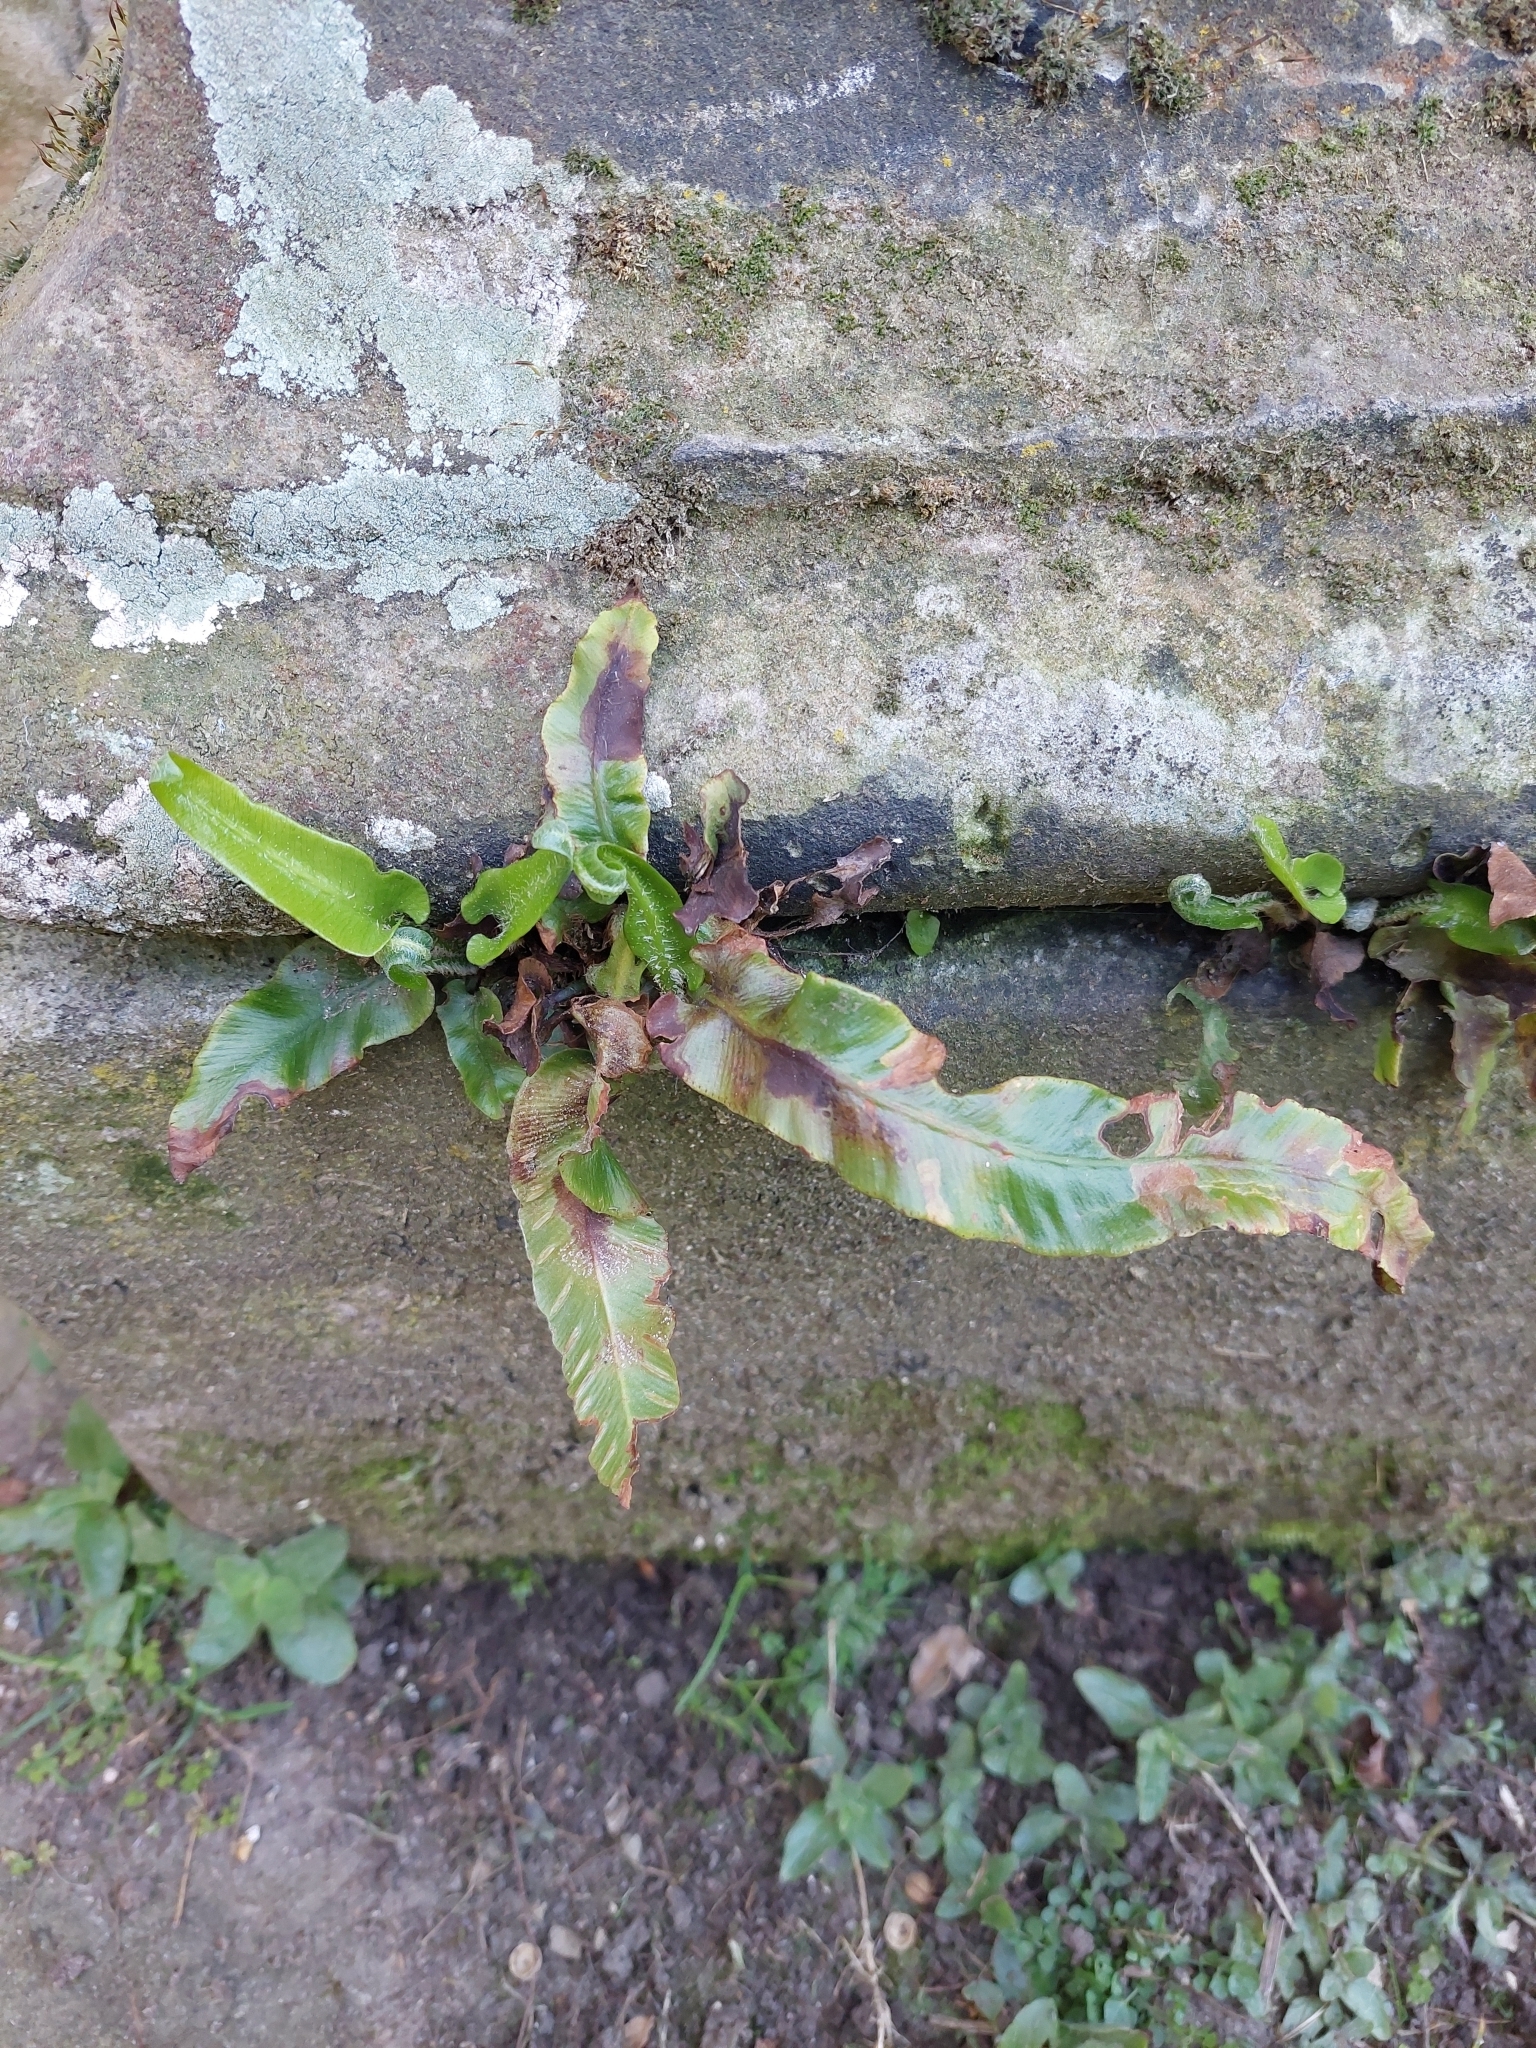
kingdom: Plantae
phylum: Tracheophyta
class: Polypodiopsida
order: Polypodiales
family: Aspleniaceae
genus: Asplenium
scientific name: Asplenium scolopendrium
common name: Hart's-tongue fern
